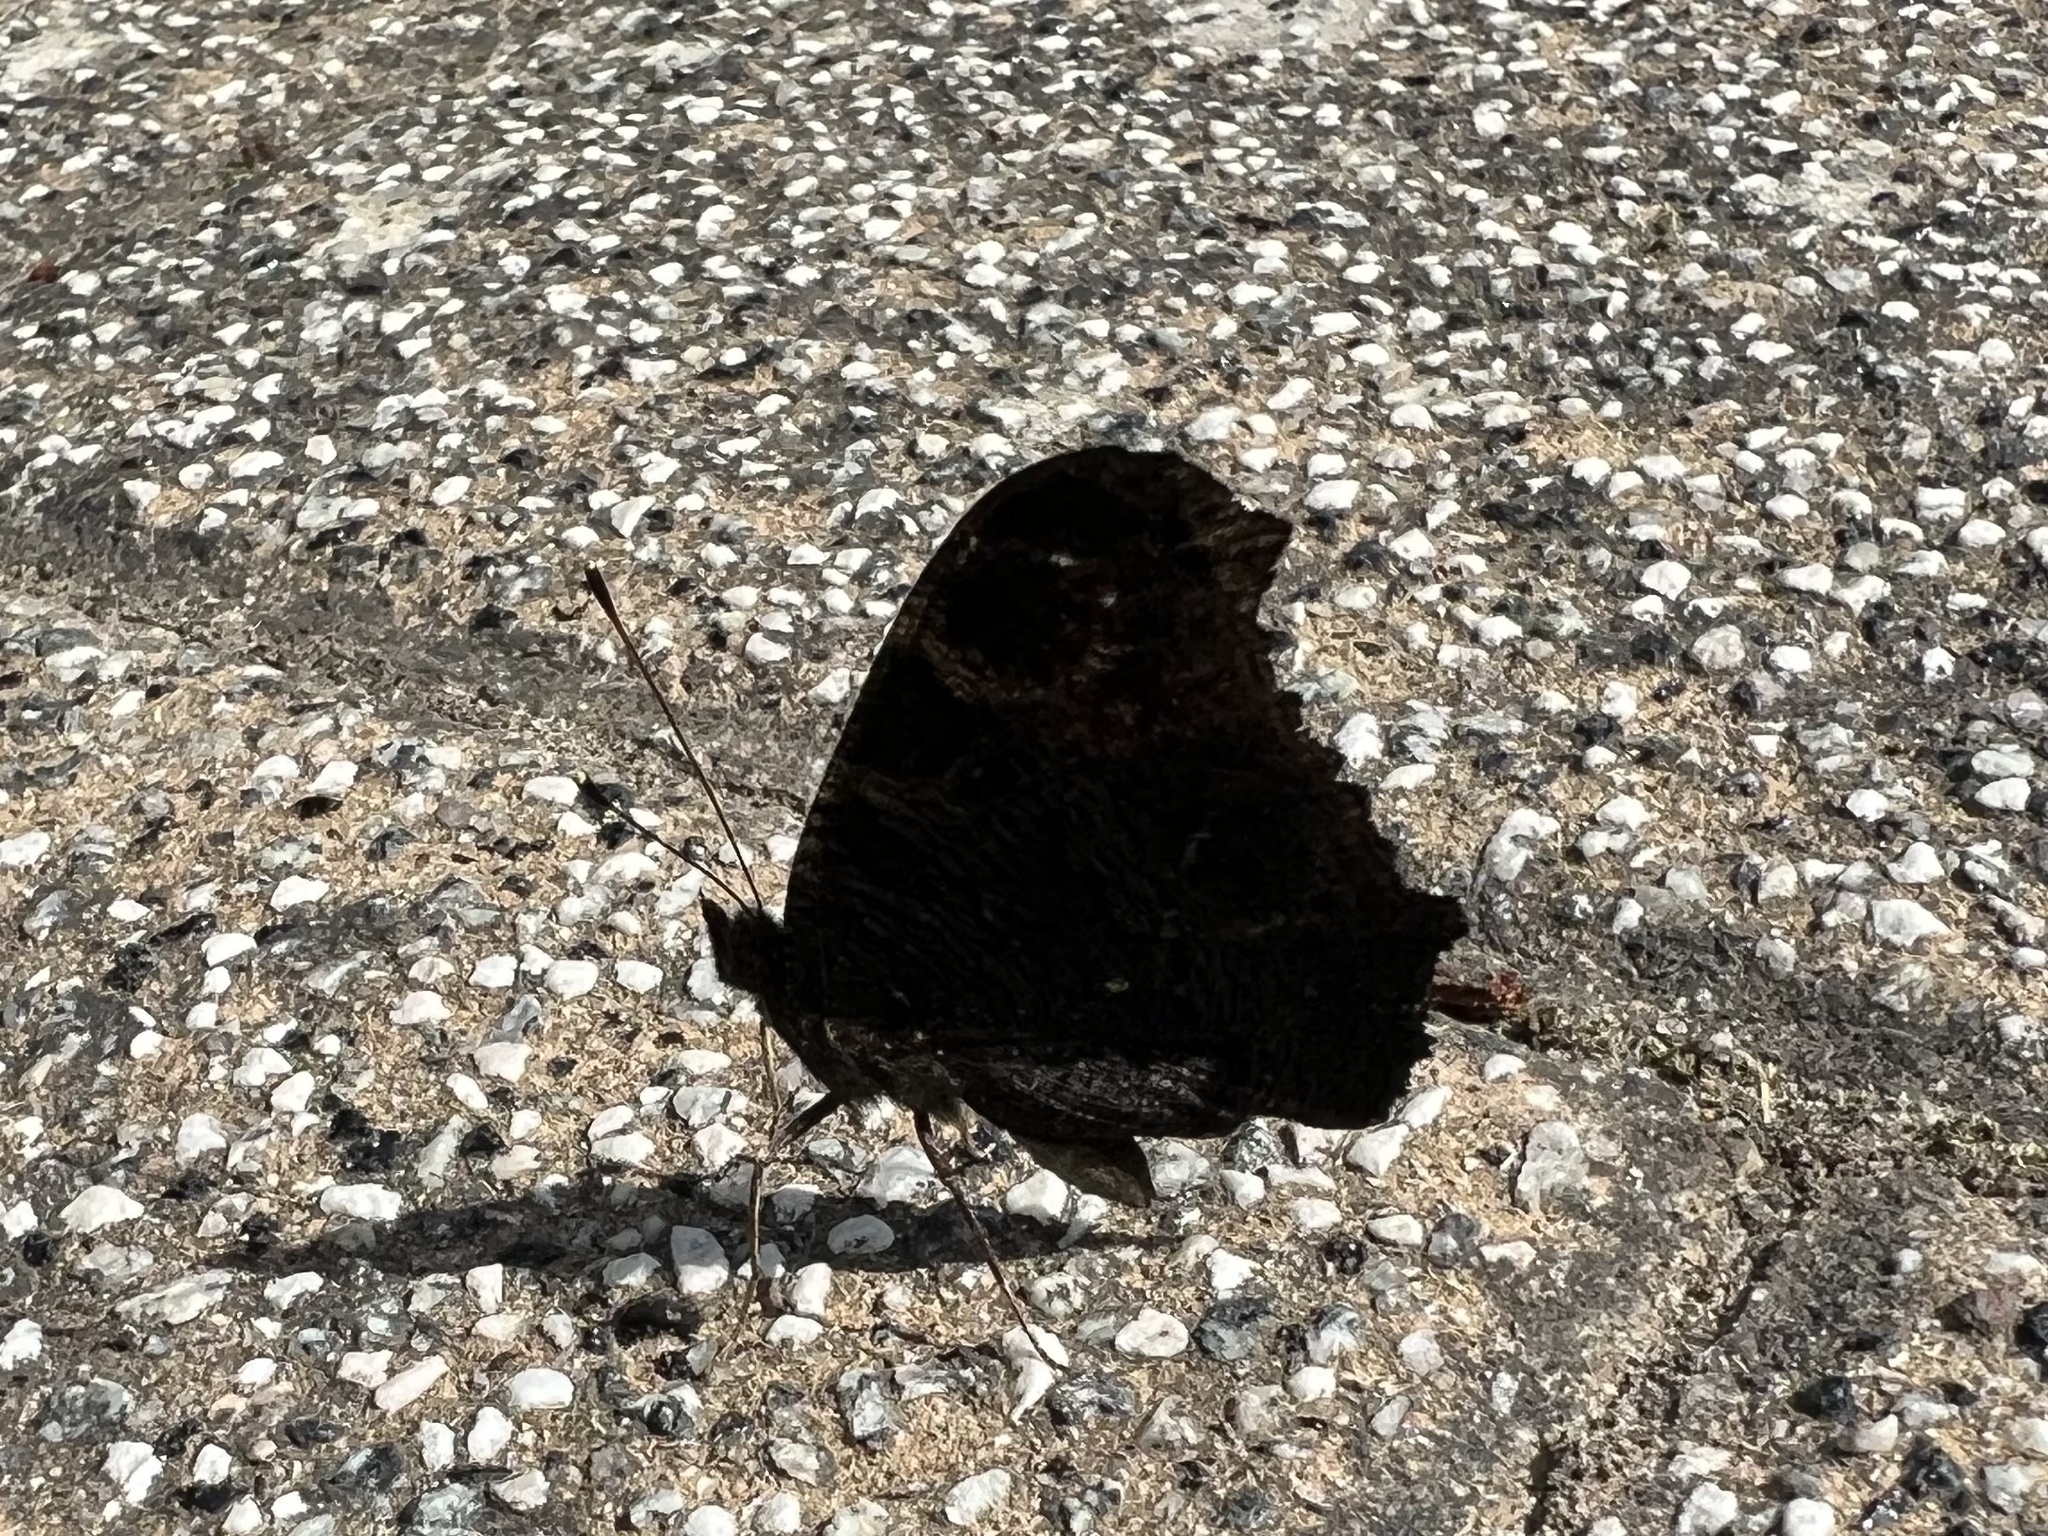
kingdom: Animalia
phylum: Arthropoda
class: Insecta
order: Lepidoptera
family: Nymphalidae
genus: Aglais
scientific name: Aglais io
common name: Peacock
